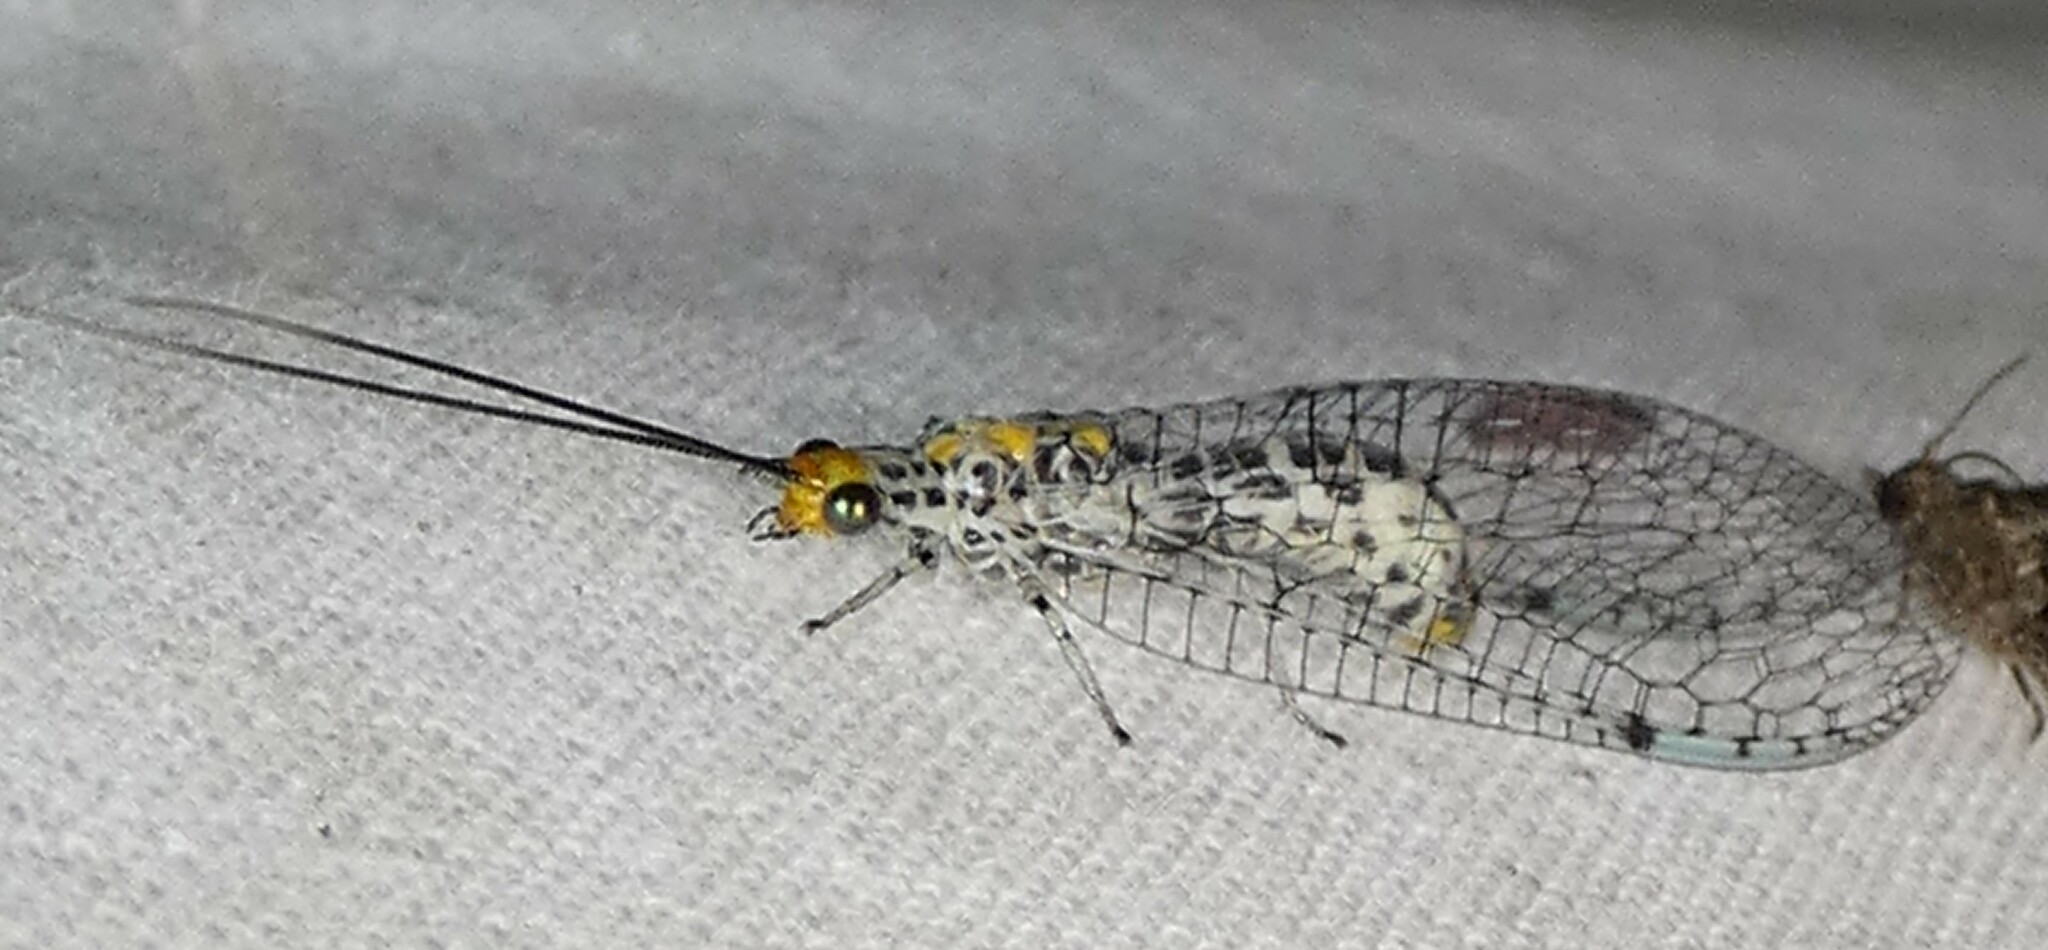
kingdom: Animalia
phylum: Arthropoda
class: Insecta
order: Neuroptera
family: Chrysopidae
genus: Abachrysa
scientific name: Abachrysa eureka
